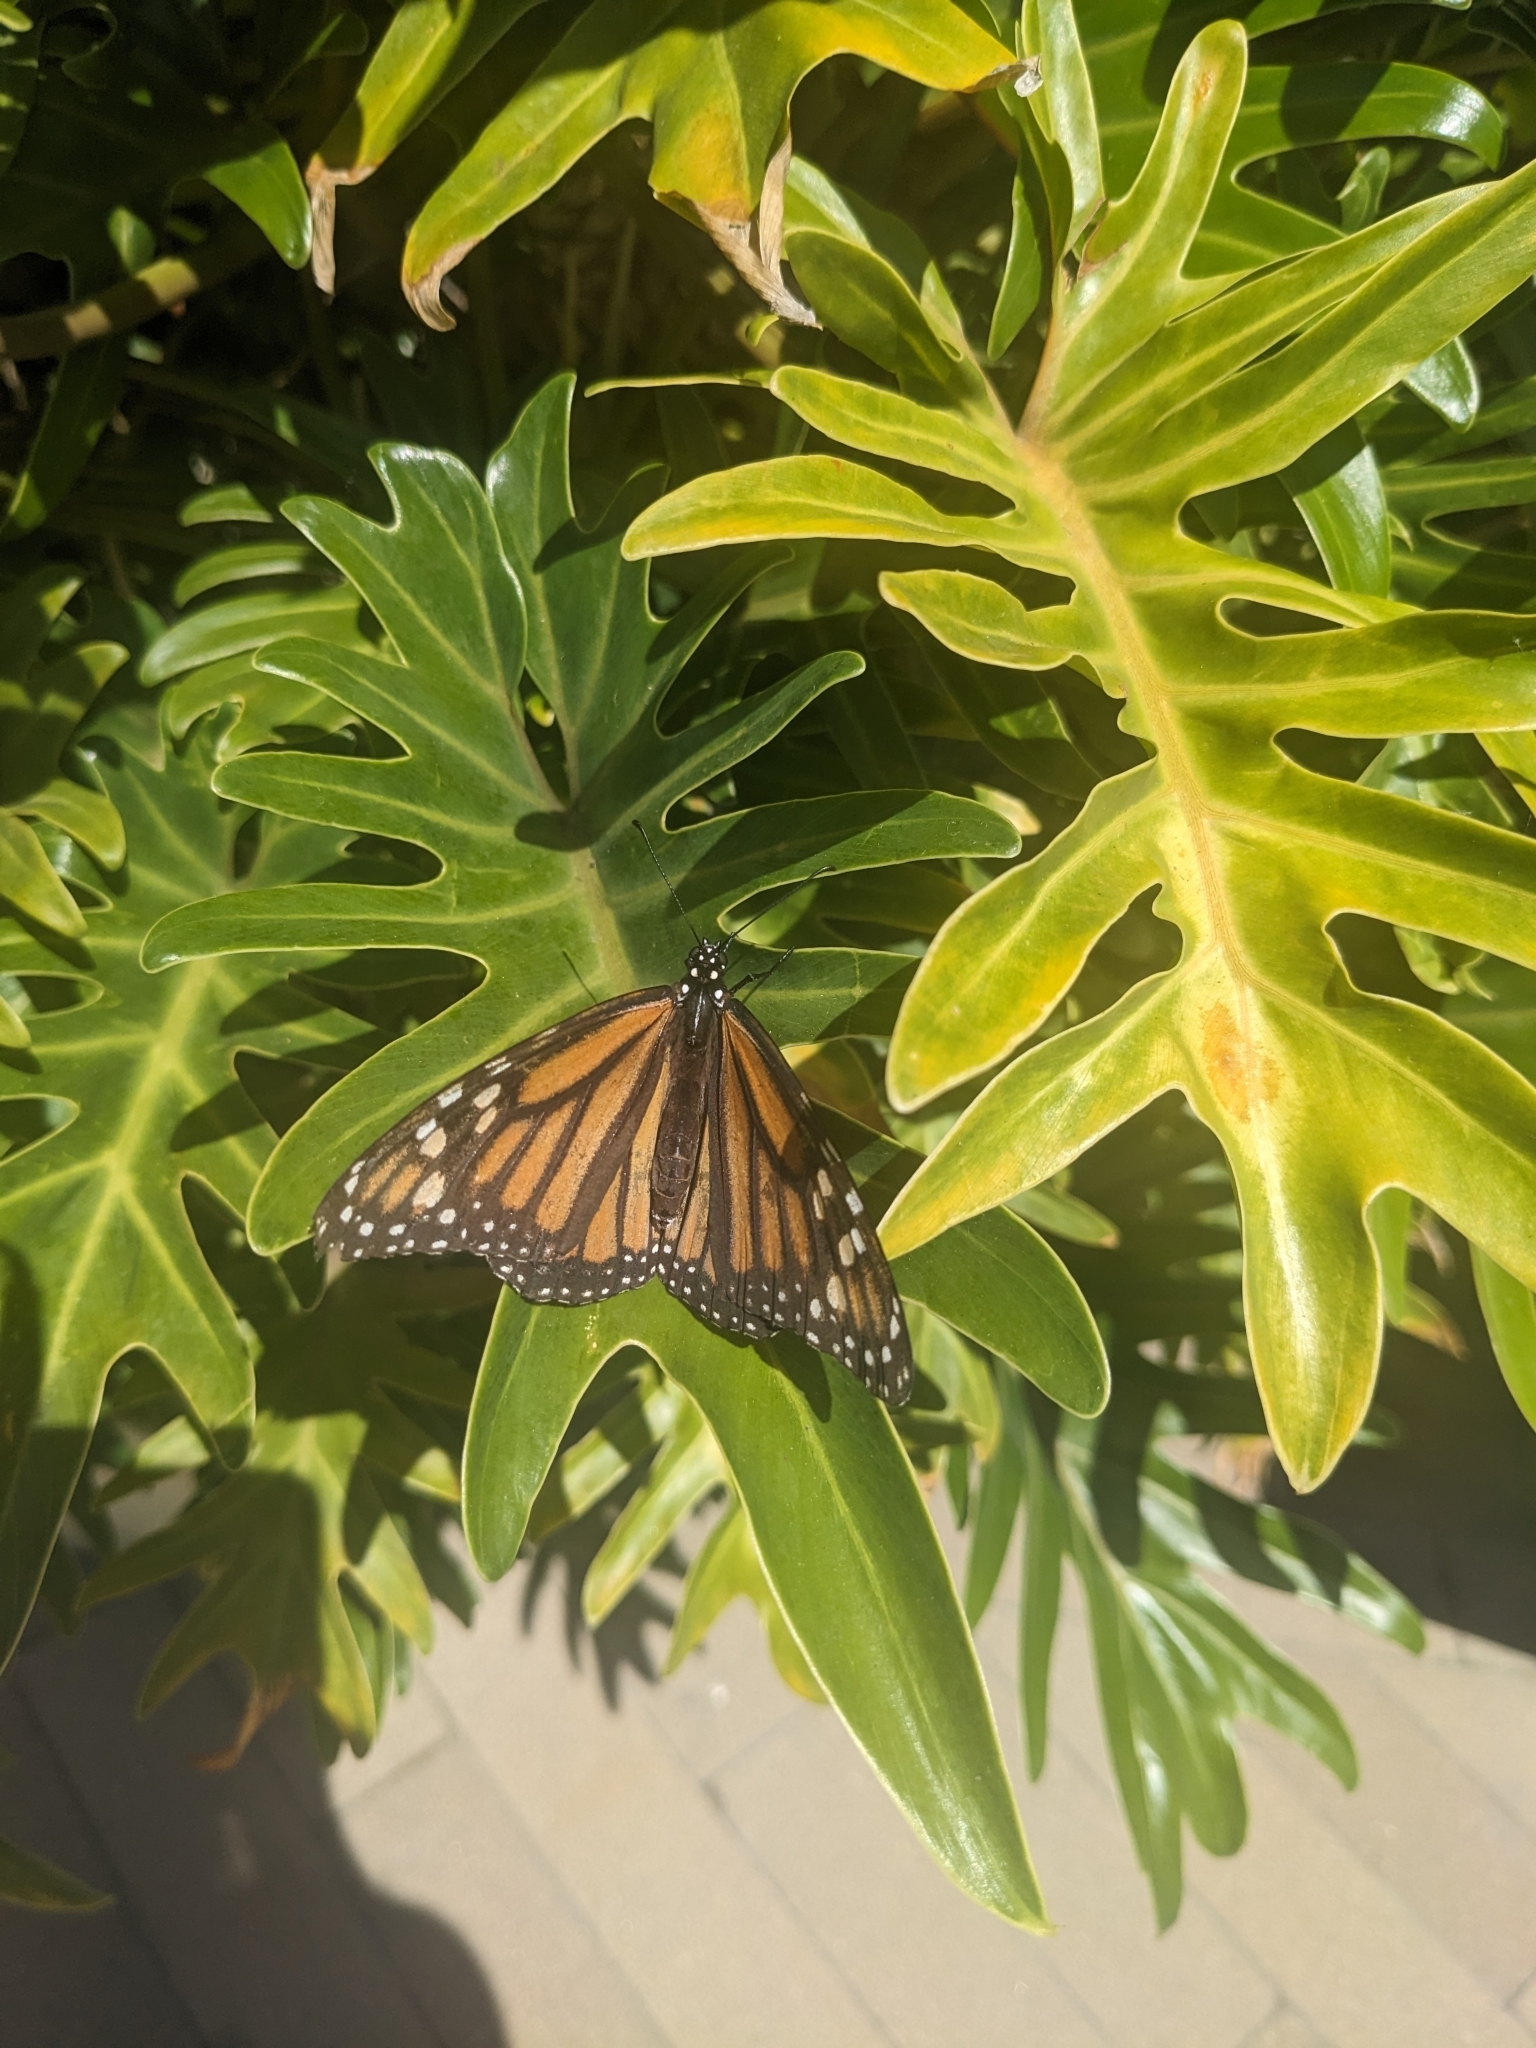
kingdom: Animalia
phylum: Arthropoda
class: Insecta
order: Lepidoptera
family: Nymphalidae
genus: Danaus
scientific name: Danaus plexippus
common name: Monarch
